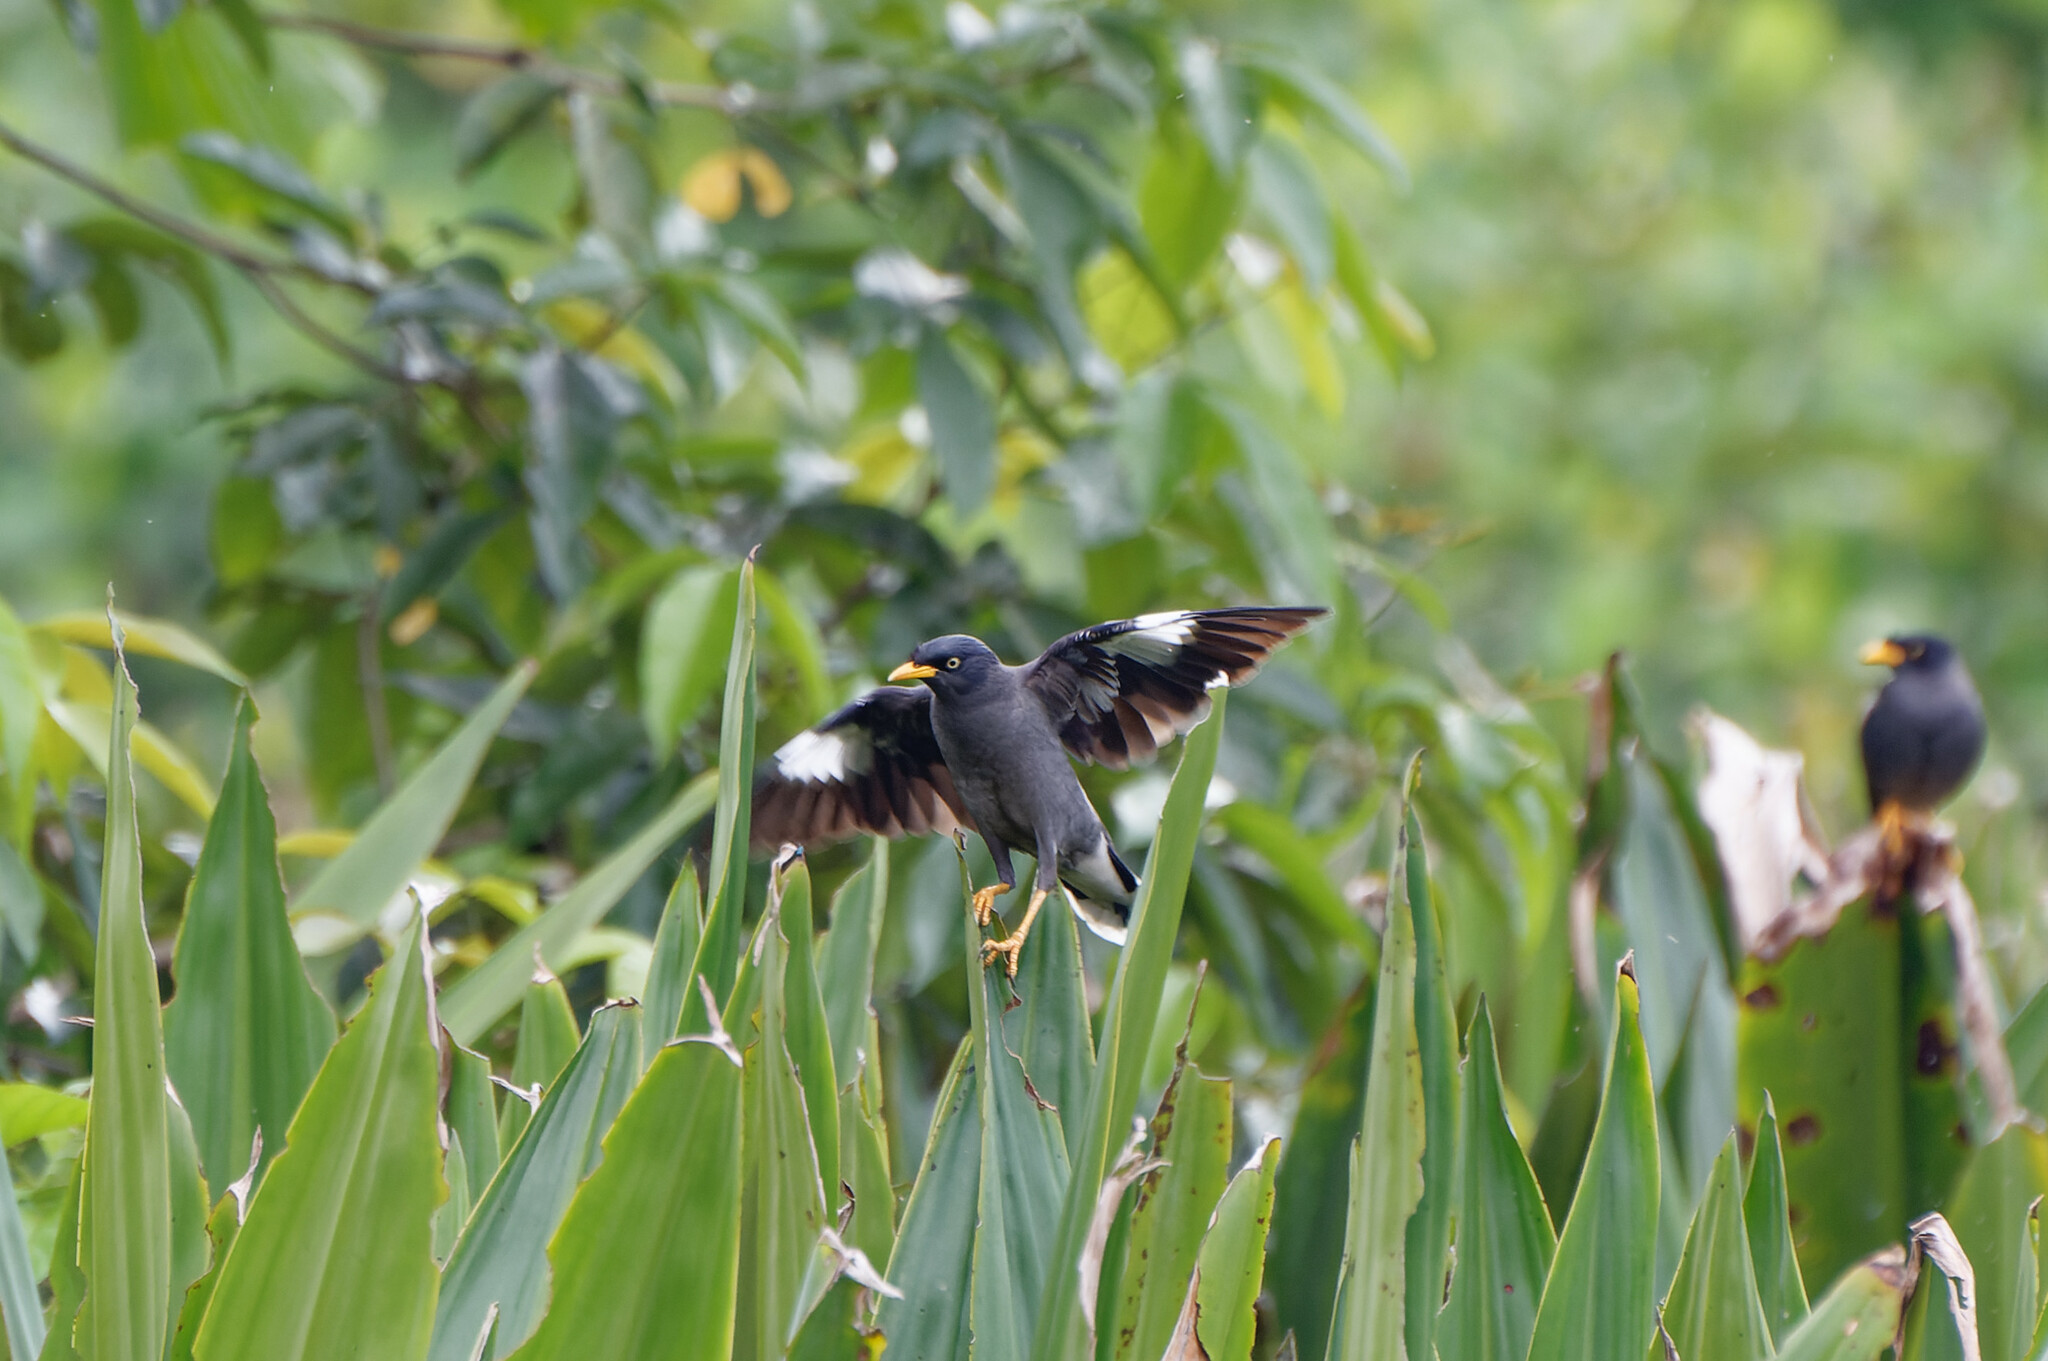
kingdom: Animalia
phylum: Chordata
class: Aves
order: Passeriformes
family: Sturnidae
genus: Acridotheres
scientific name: Acridotheres javanicus
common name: Javan myna
